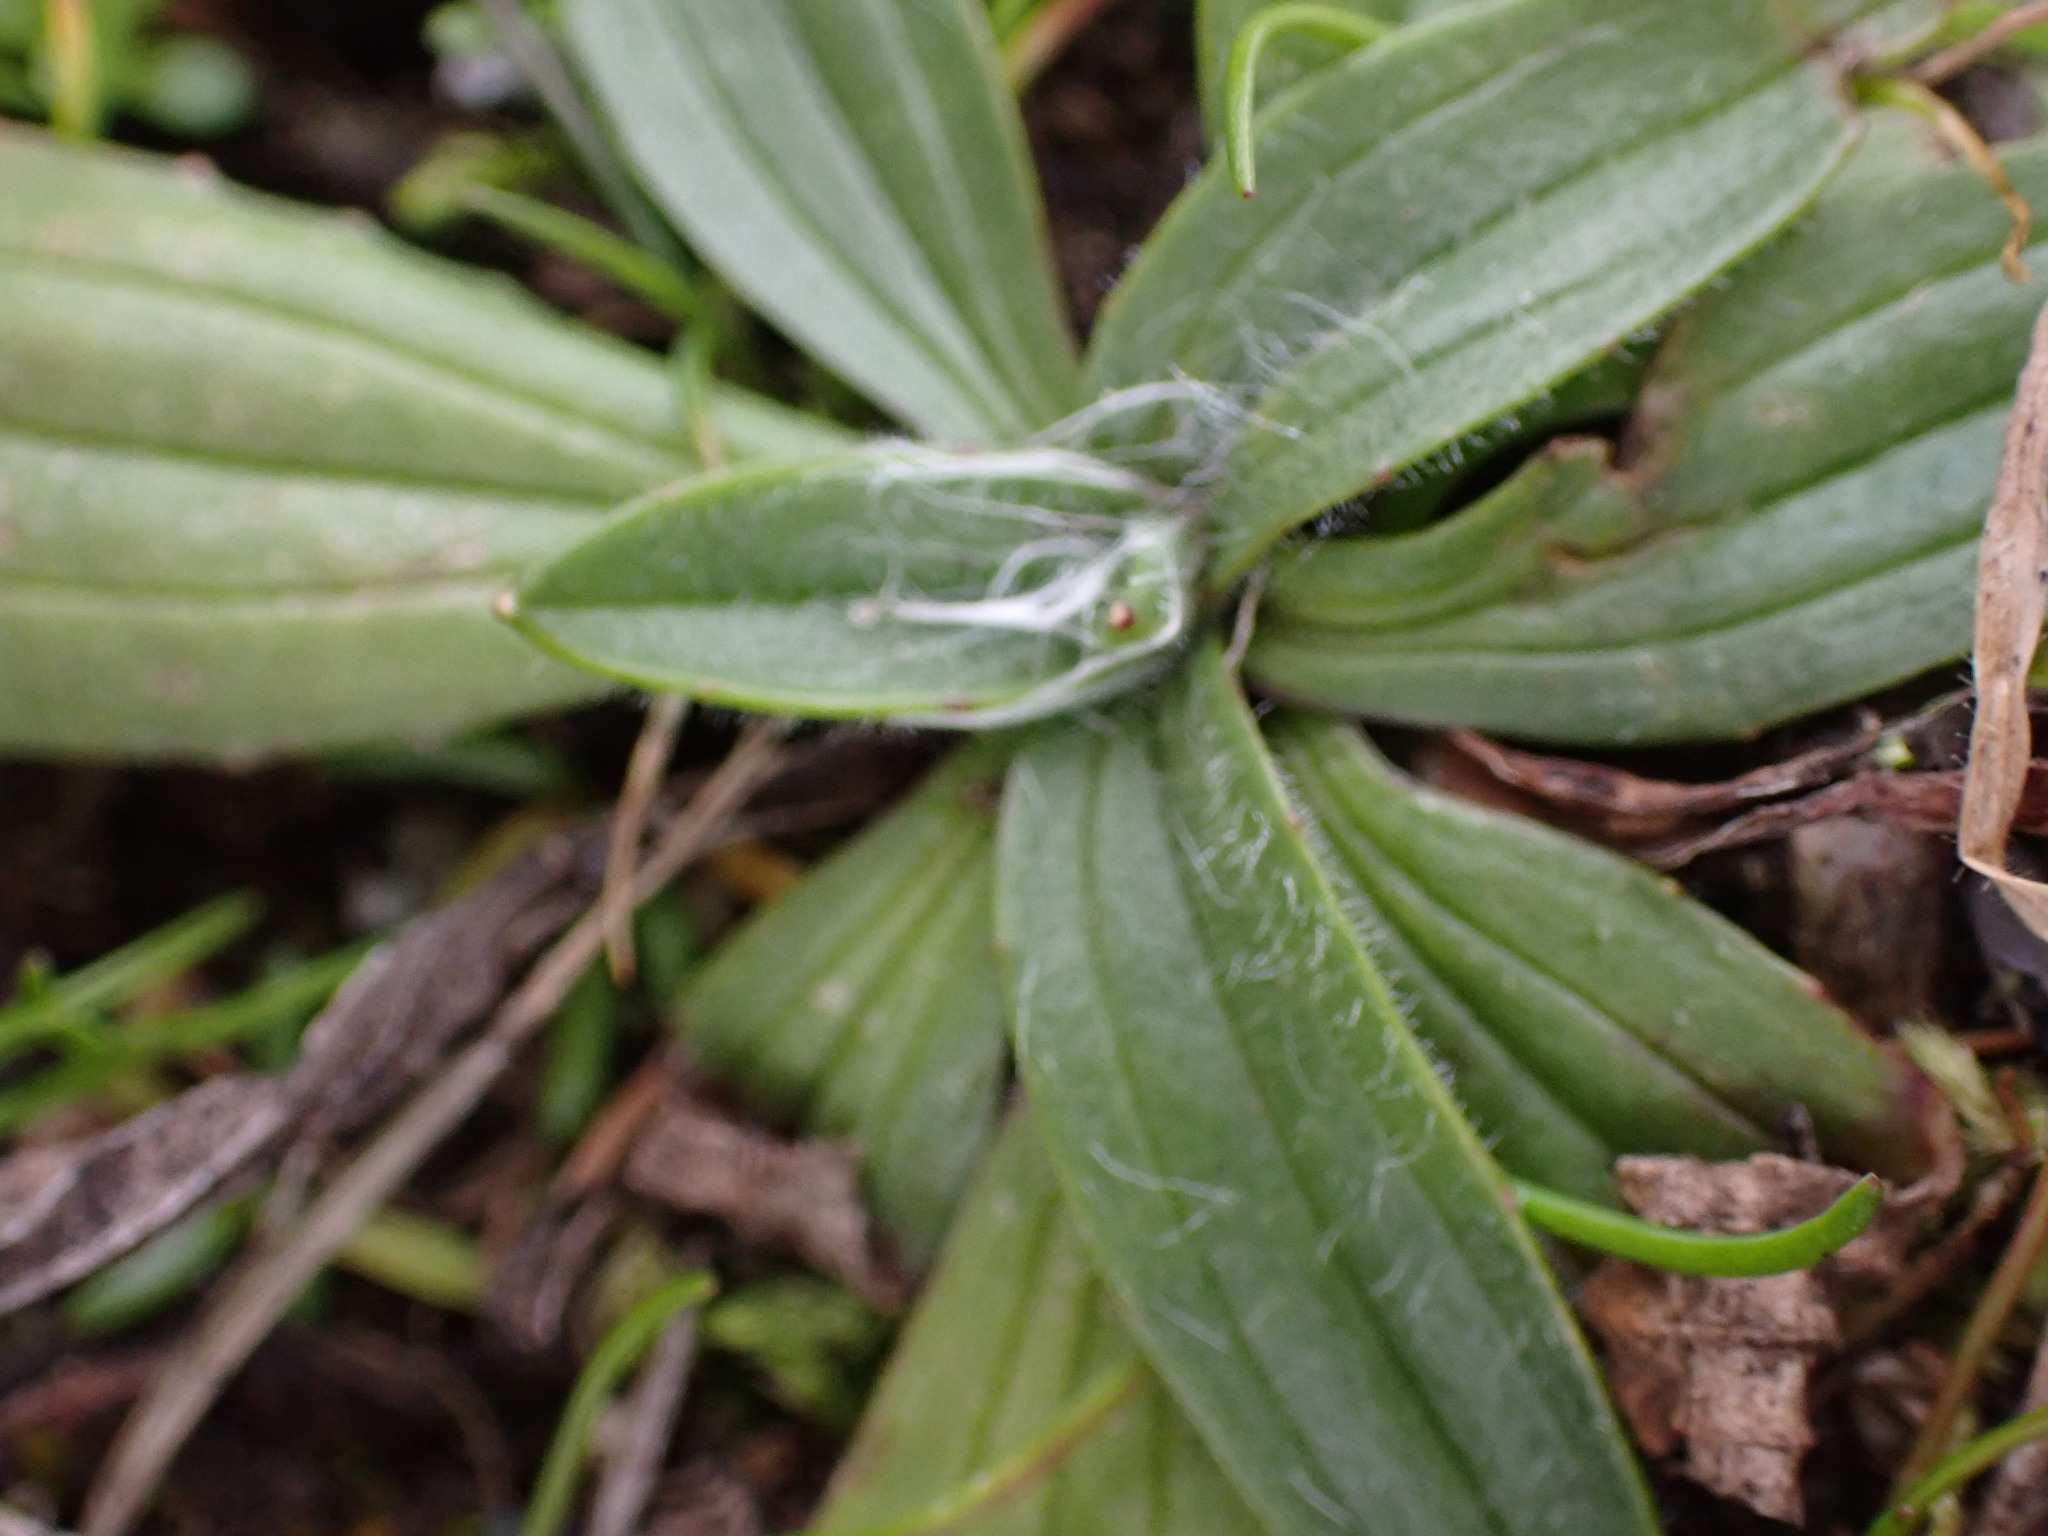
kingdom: Plantae
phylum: Tracheophyta
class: Magnoliopsida
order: Lamiales
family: Plantaginaceae
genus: Plantago
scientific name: Plantago lanceolata
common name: Ribwort plantain
